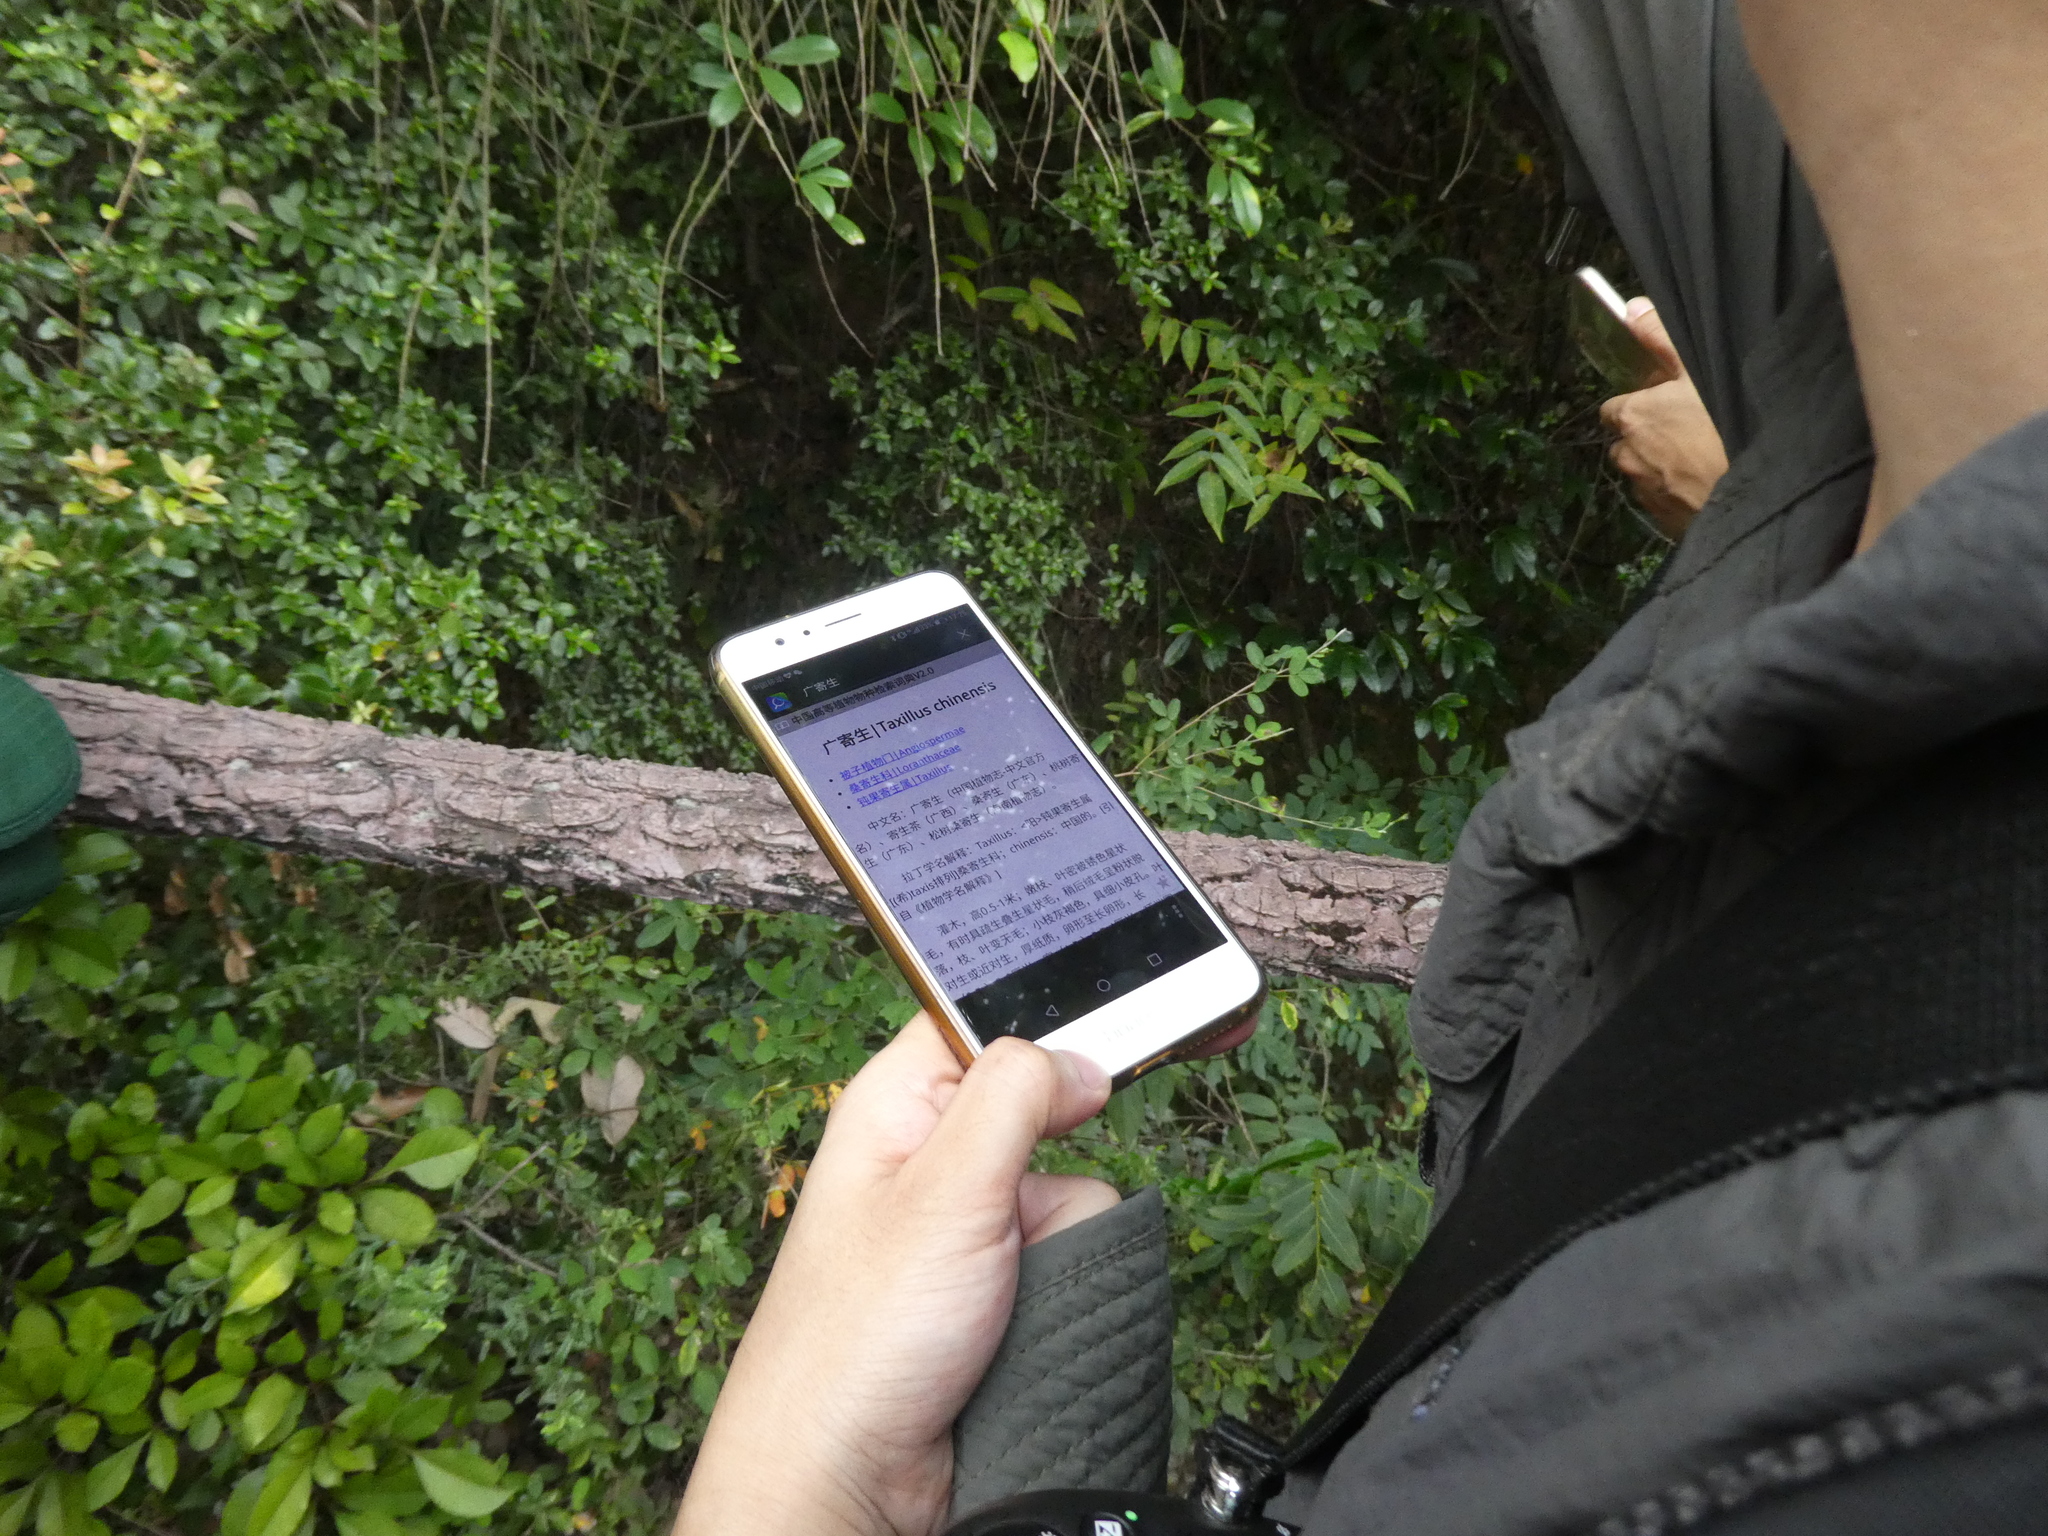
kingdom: Plantae
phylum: Tracheophyta
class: Magnoliopsida
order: Santalales
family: Loranthaceae
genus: Taxillus
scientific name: Taxillus chinensis
